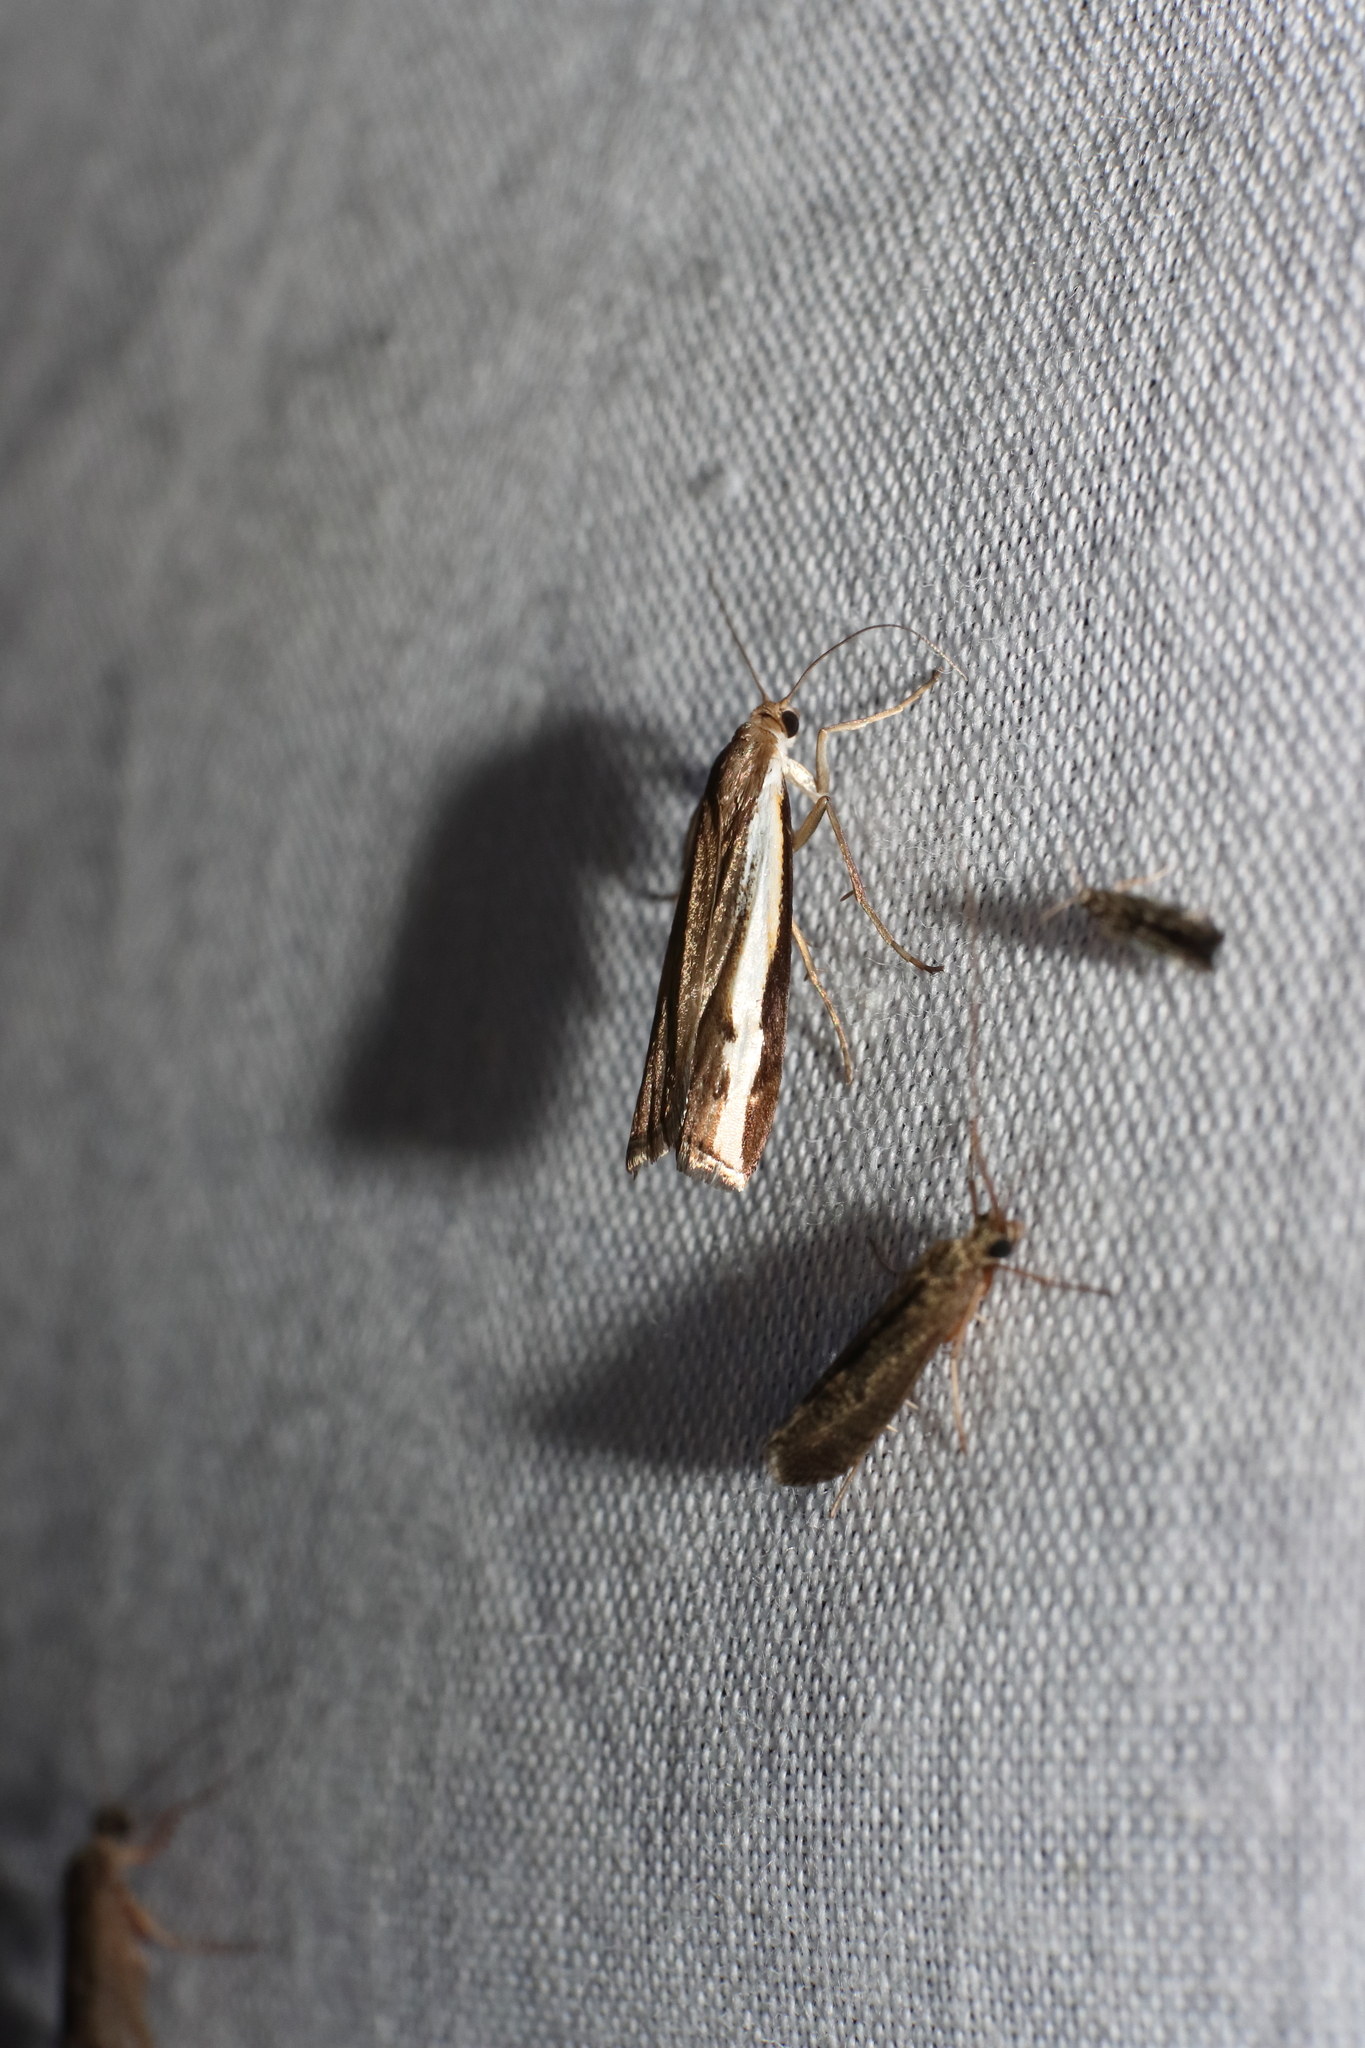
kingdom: Animalia
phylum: Arthropoda
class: Insecta
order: Lepidoptera
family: Crambidae
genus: Orocrambus
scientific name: Orocrambus flexuosellus
